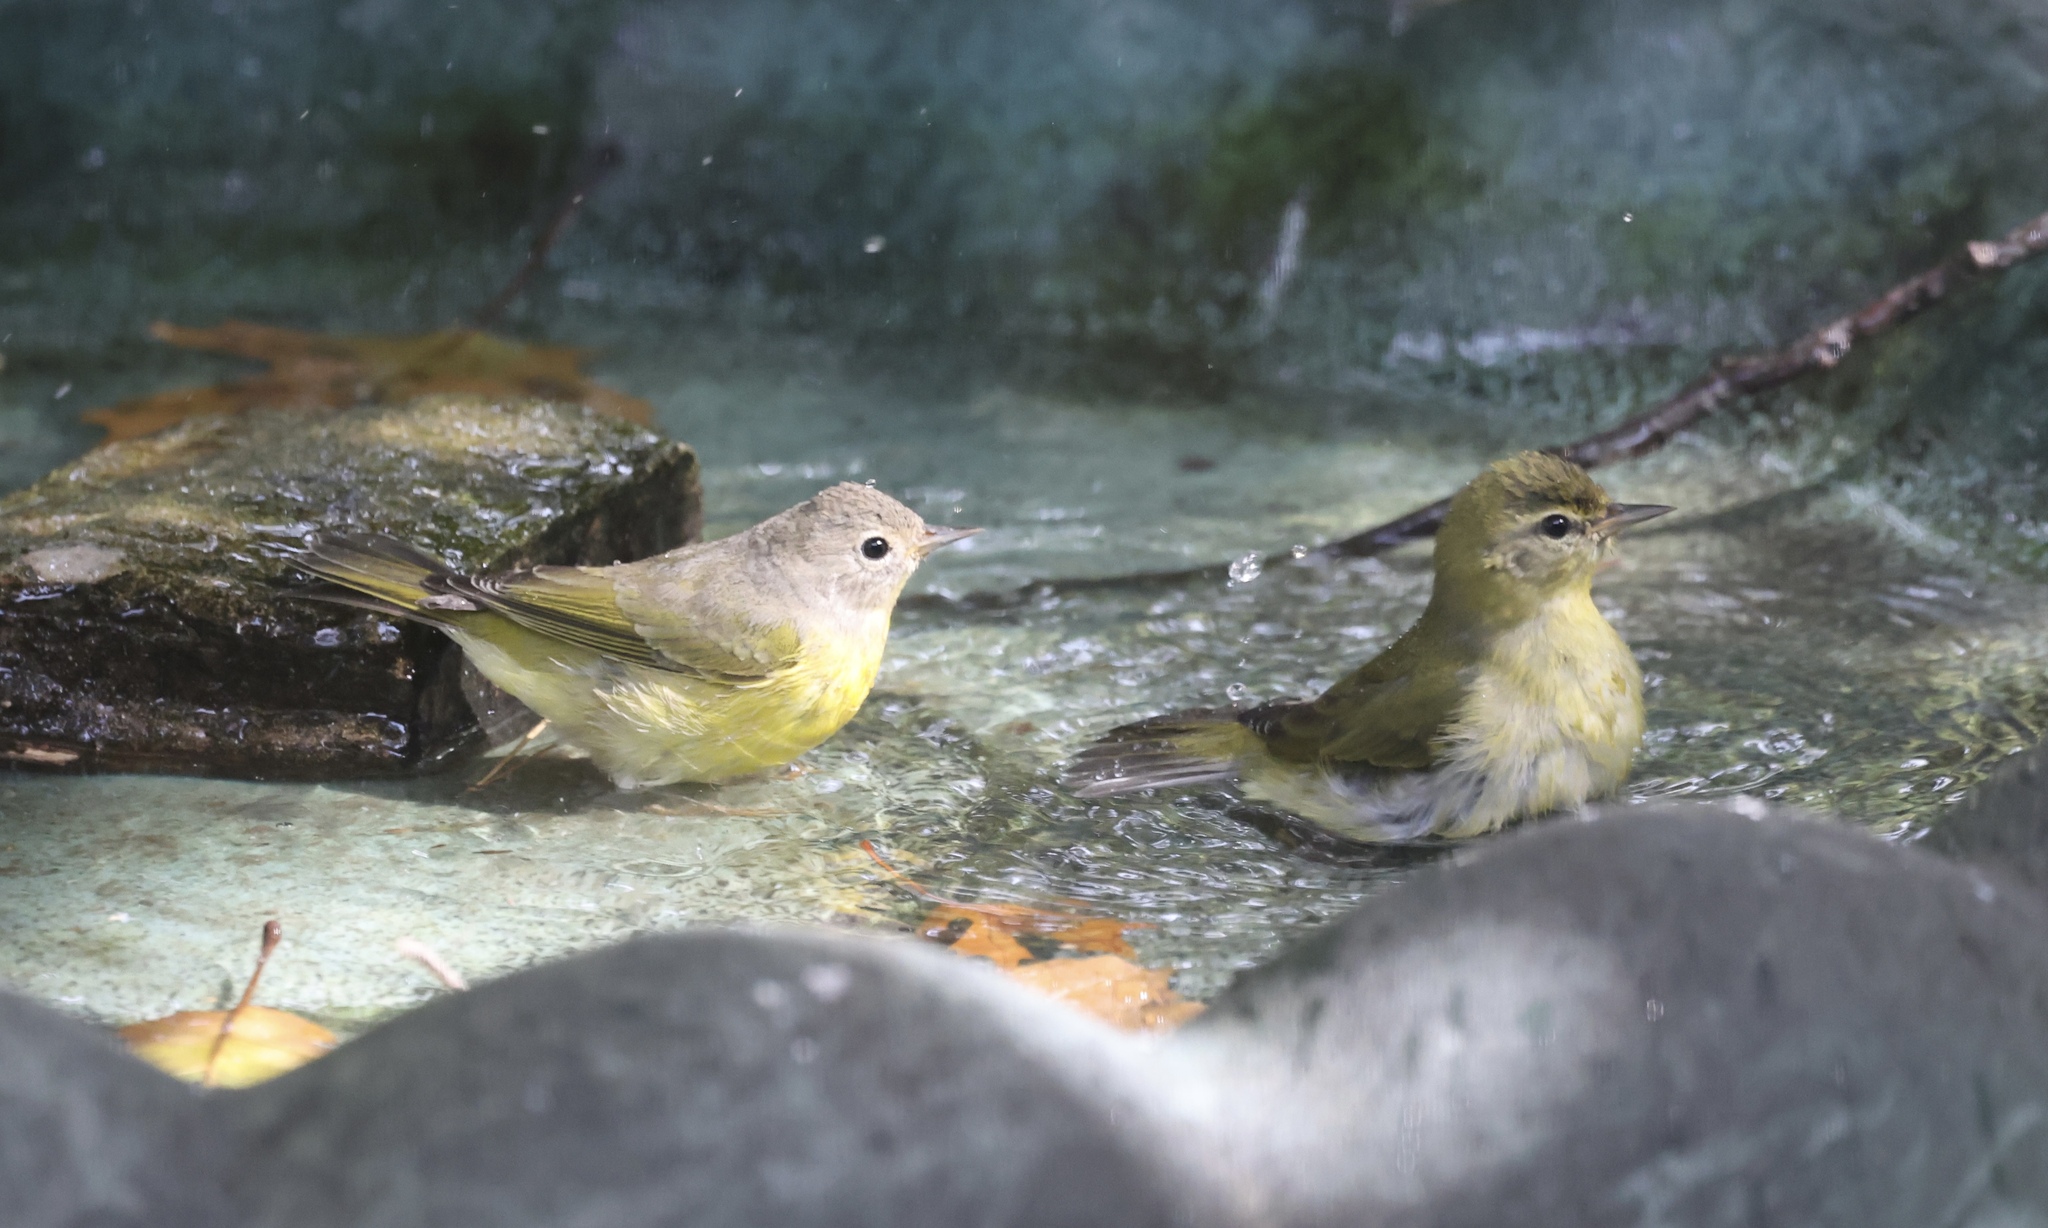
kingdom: Animalia
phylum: Chordata
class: Aves
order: Passeriformes
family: Parulidae
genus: Leiothlypis
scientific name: Leiothlypis peregrina
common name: Tennessee warbler
